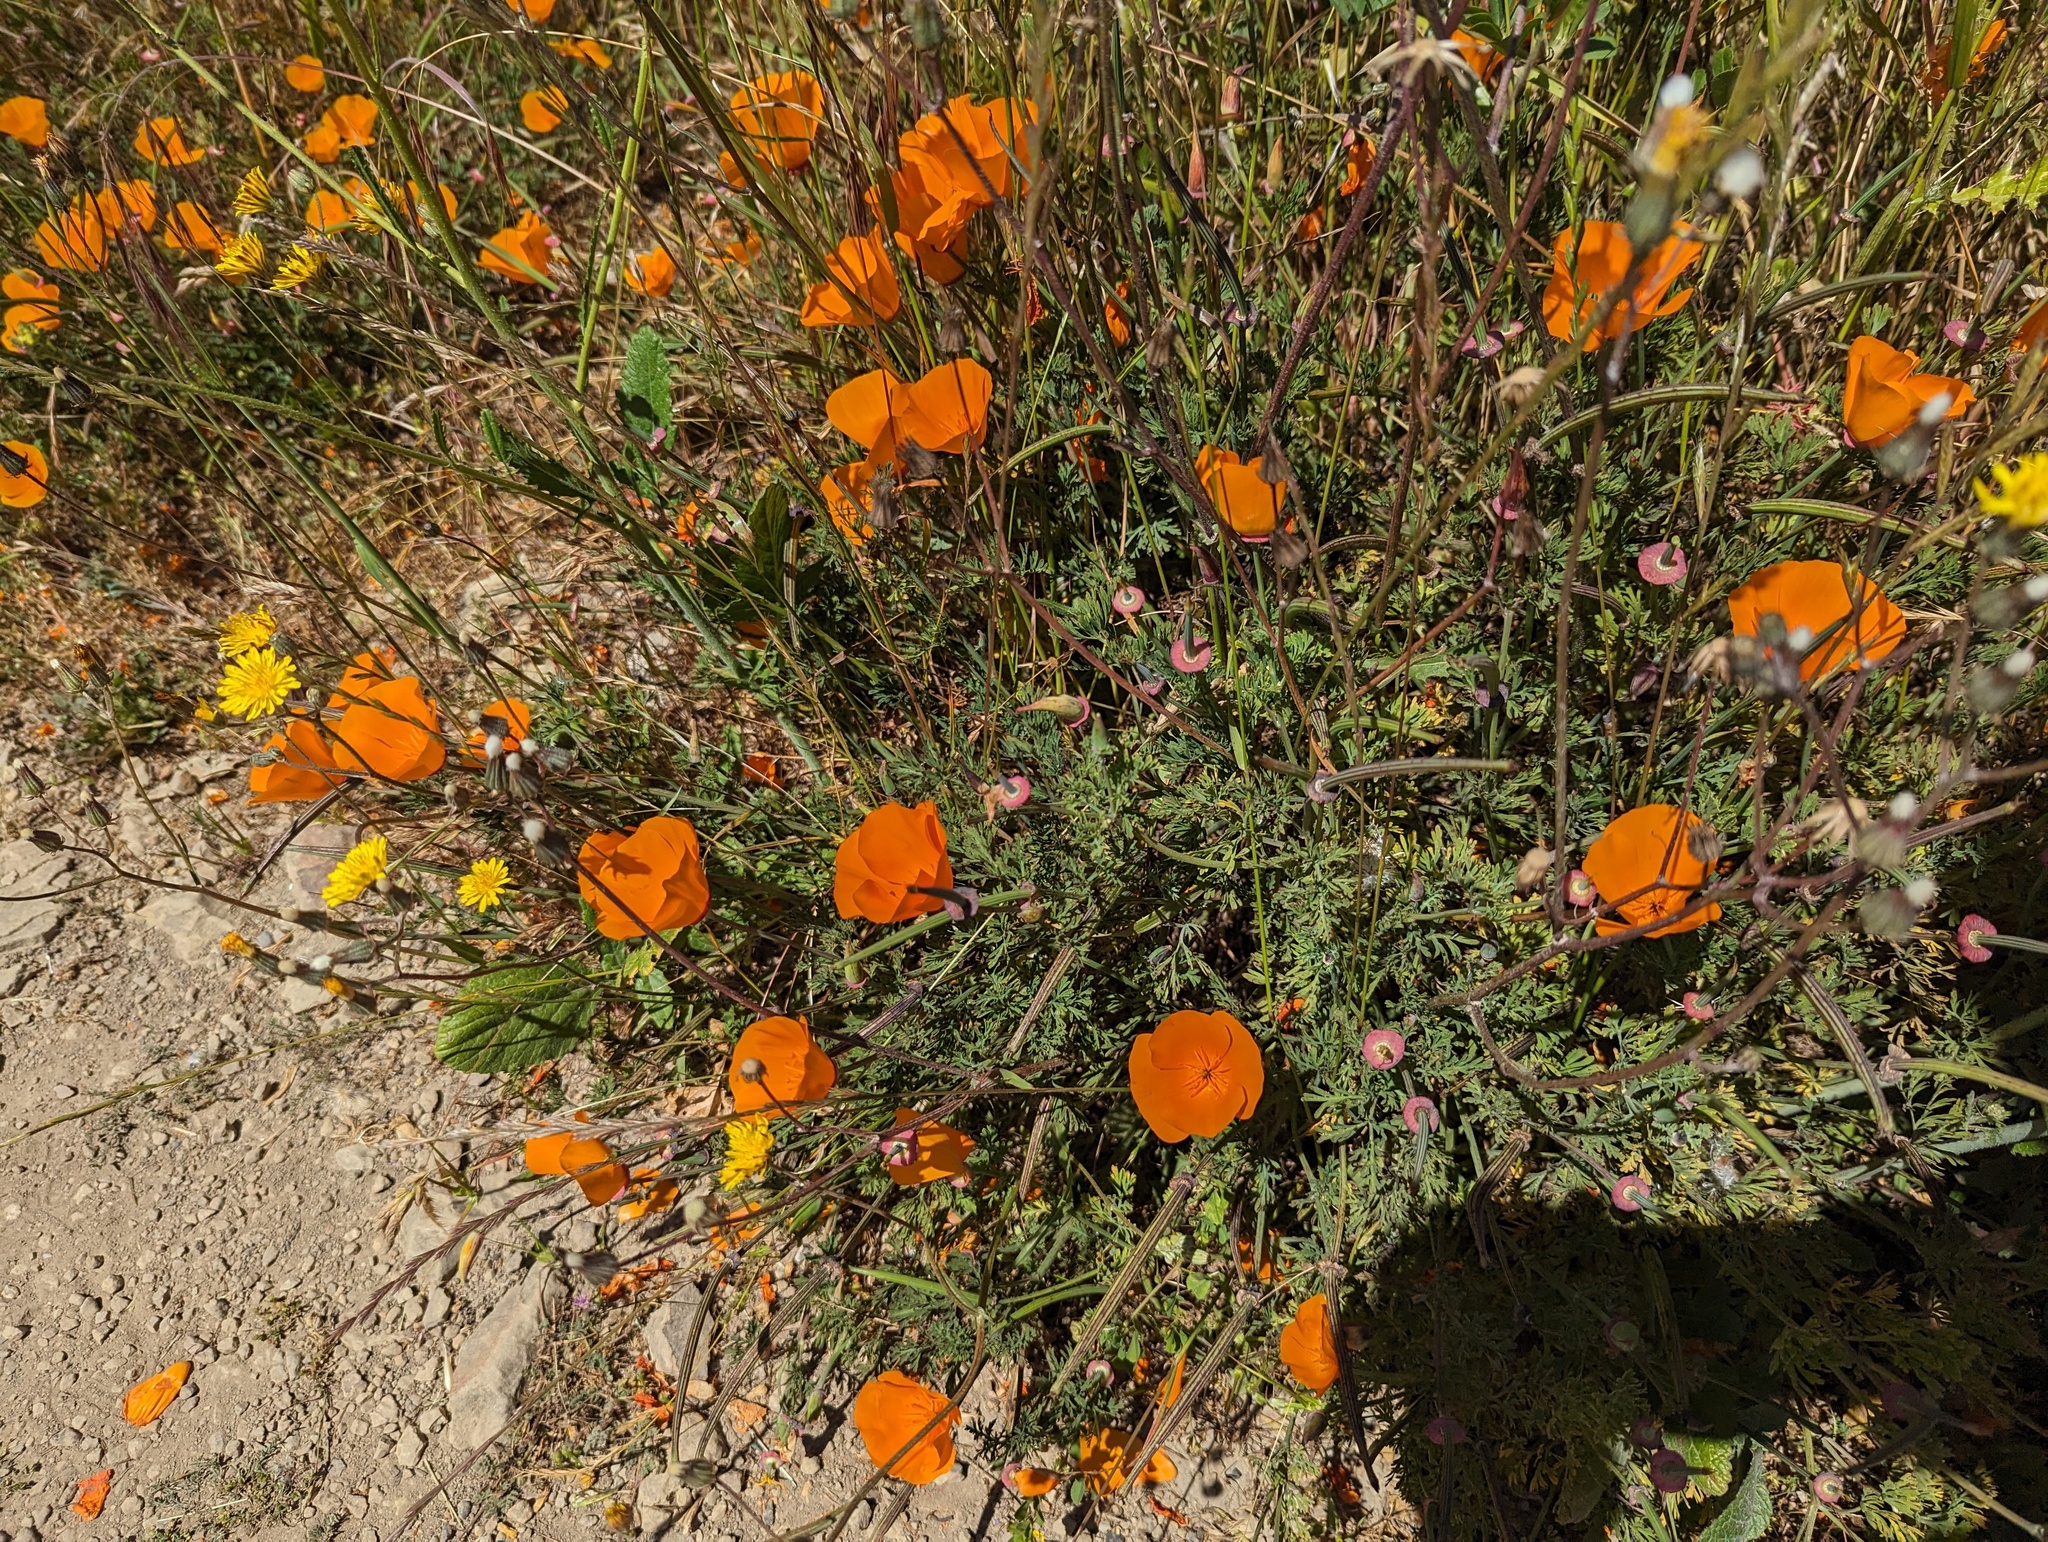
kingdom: Plantae
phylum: Tracheophyta
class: Magnoliopsida
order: Ranunculales
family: Papaveraceae
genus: Eschscholzia
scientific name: Eschscholzia californica
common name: California poppy
